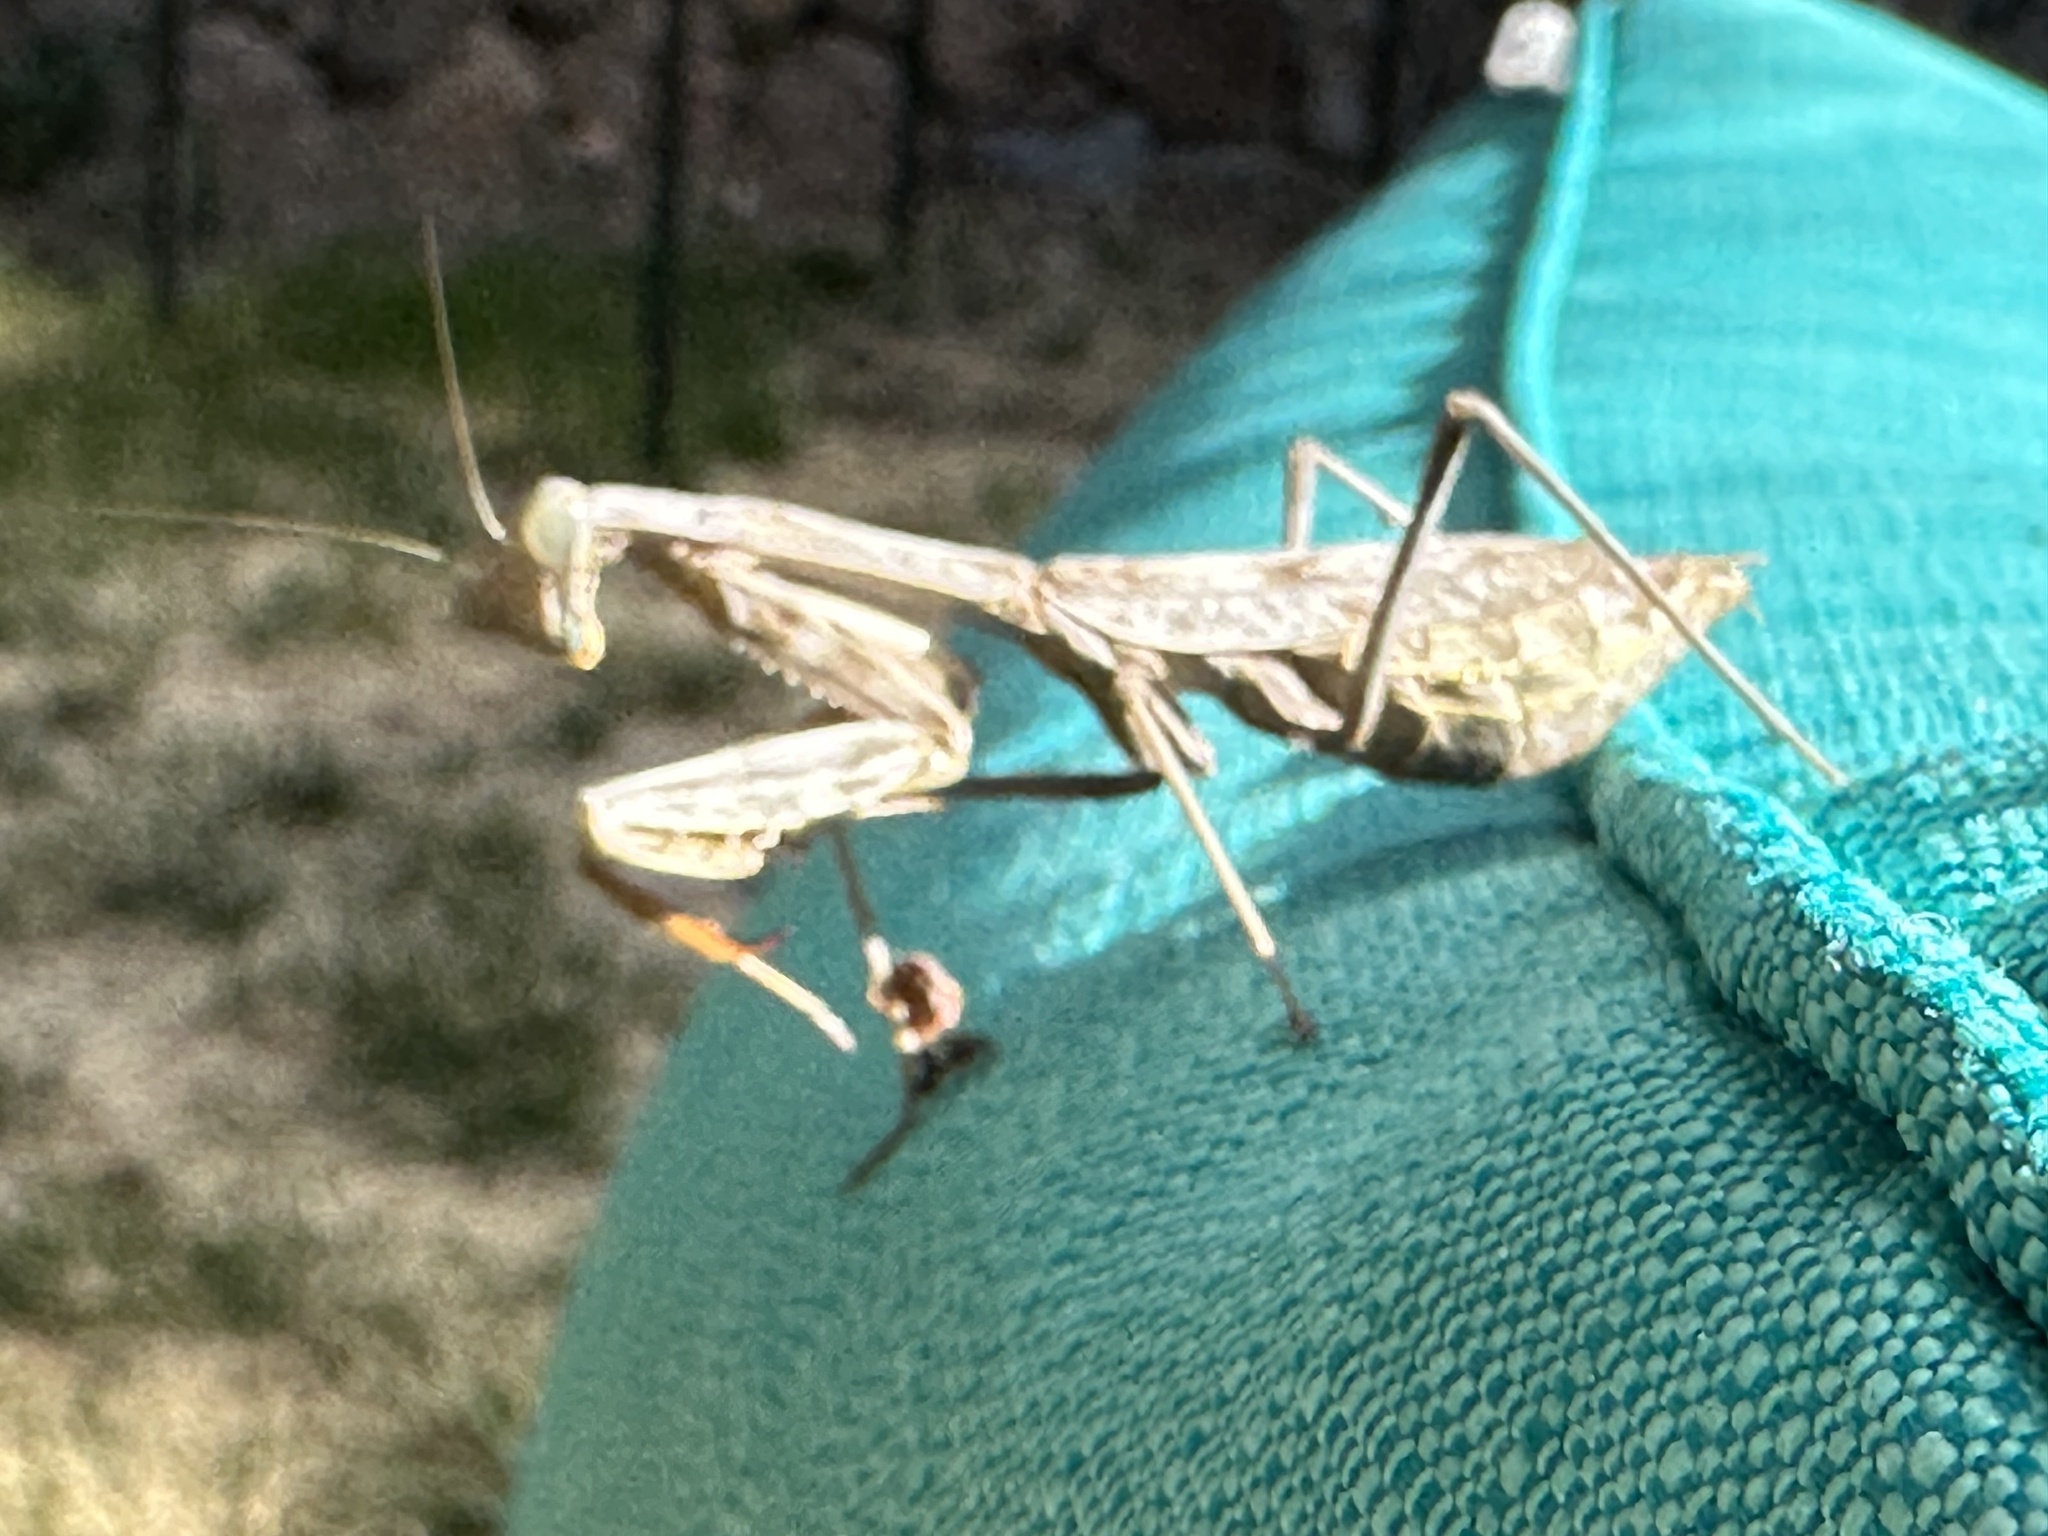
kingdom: Animalia
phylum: Arthropoda
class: Insecta
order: Mantodea
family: Mantidae
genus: Stagmomantis
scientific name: Stagmomantis limbata
